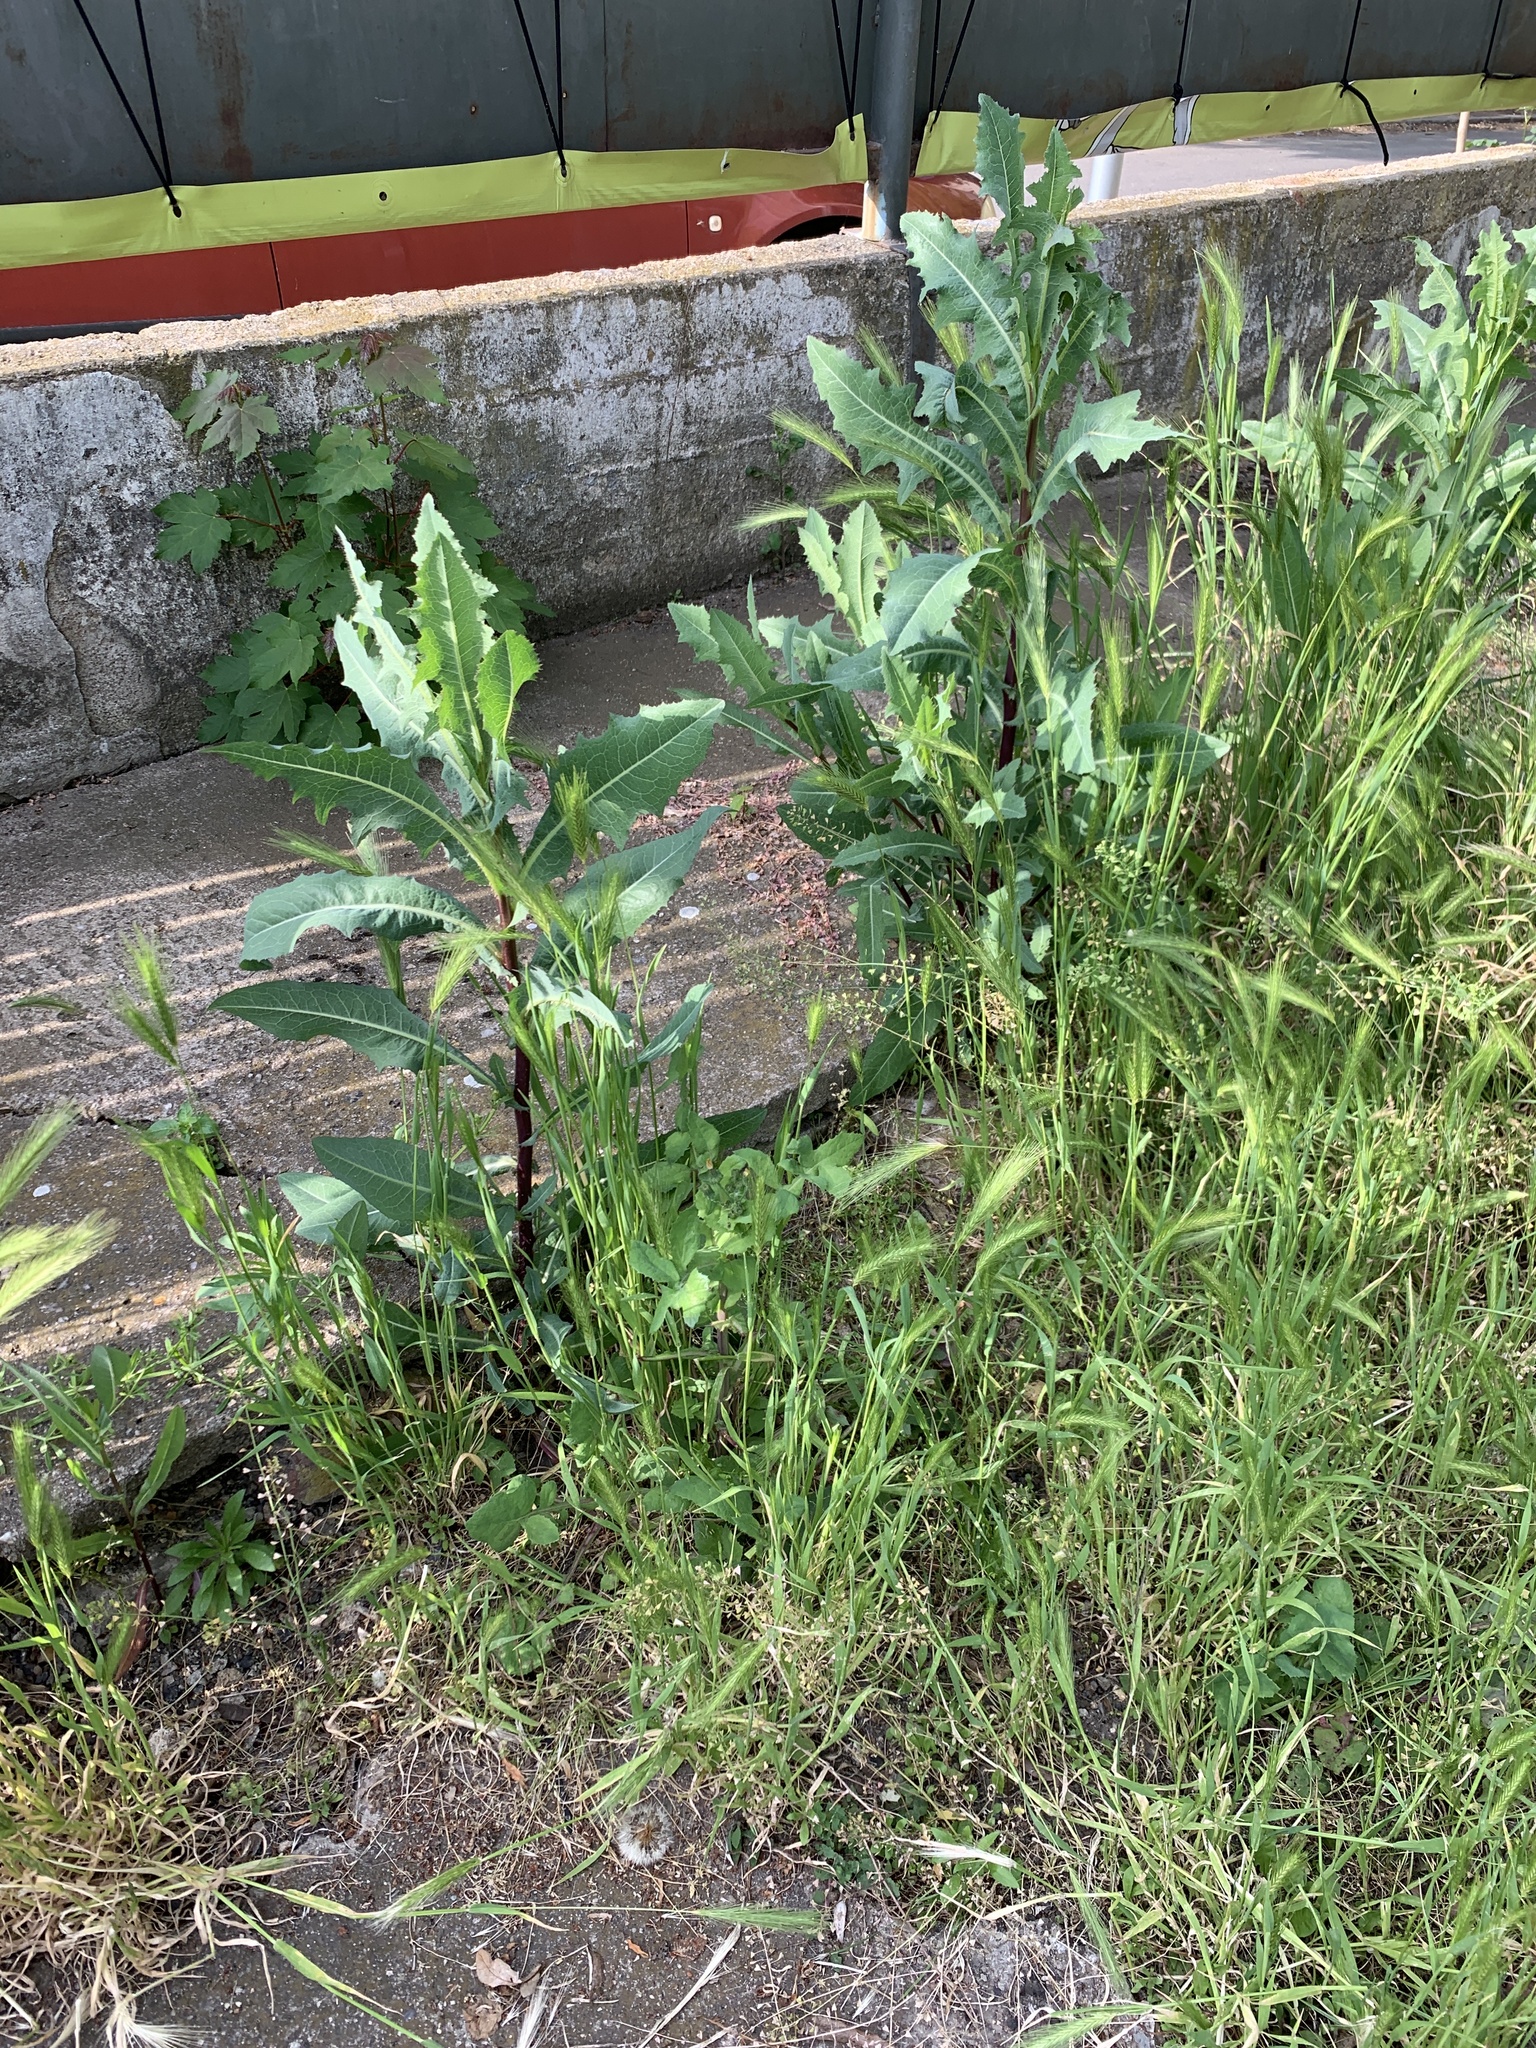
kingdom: Plantae
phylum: Tracheophyta
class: Magnoliopsida
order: Asterales
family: Asteraceae
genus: Lactuca
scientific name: Lactuca serriola
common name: Prickly lettuce
